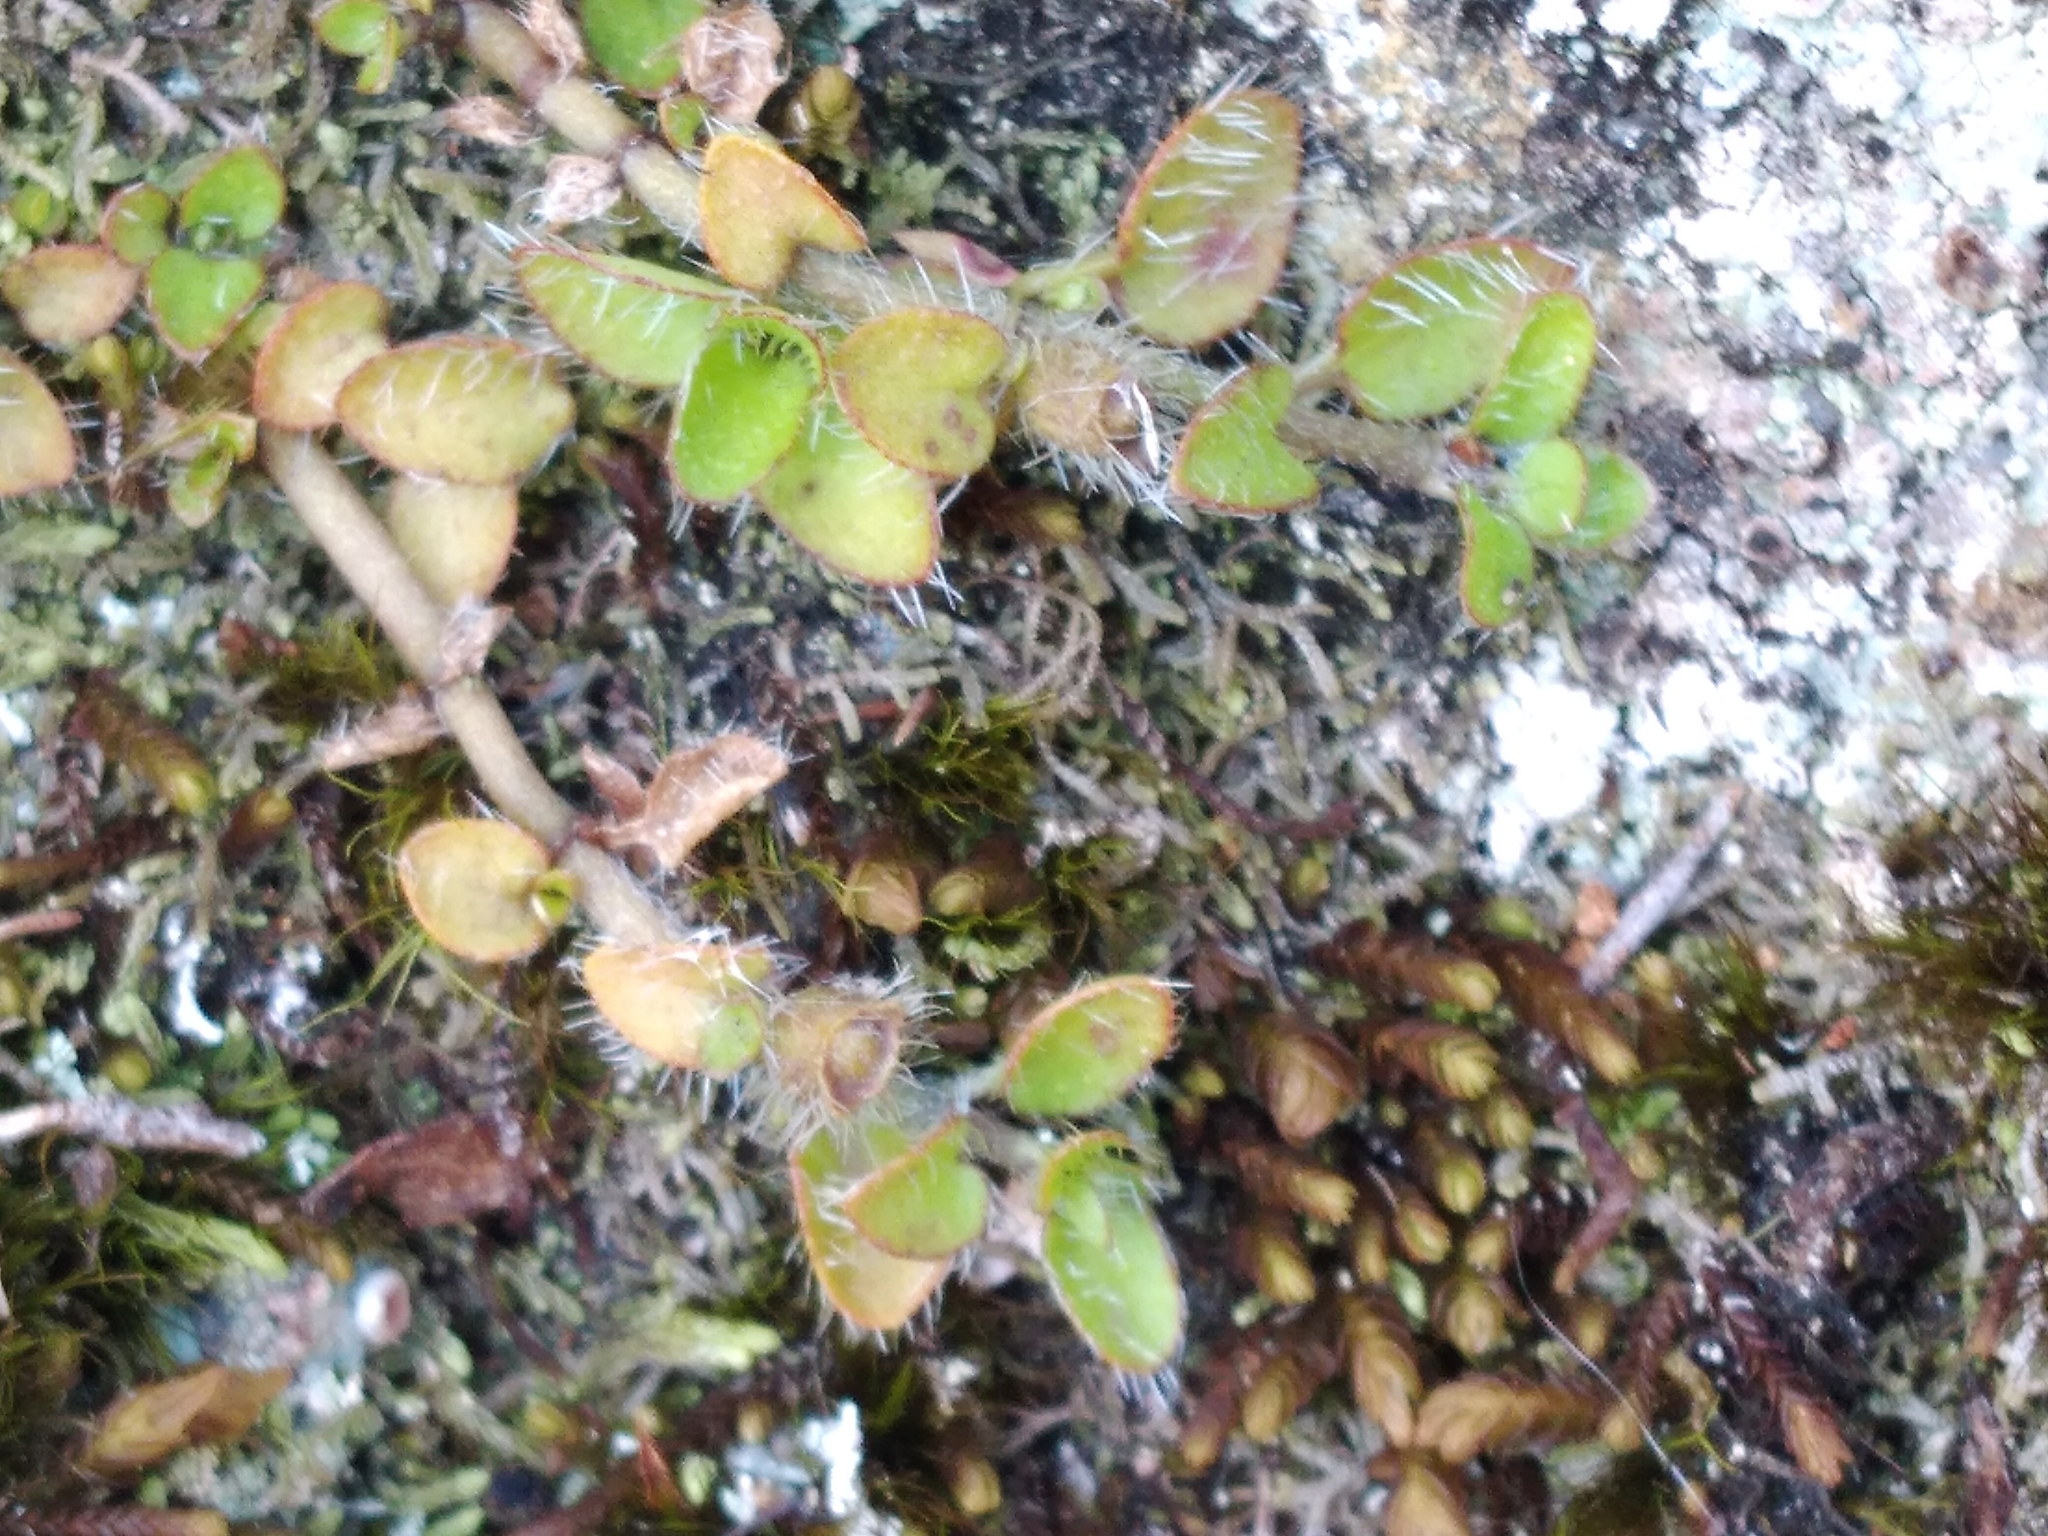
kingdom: Plantae
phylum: Tracheophyta
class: Magnoliopsida
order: Gentianales
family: Rubiaceae
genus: Leptostigma
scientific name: Leptostigma setulosum
